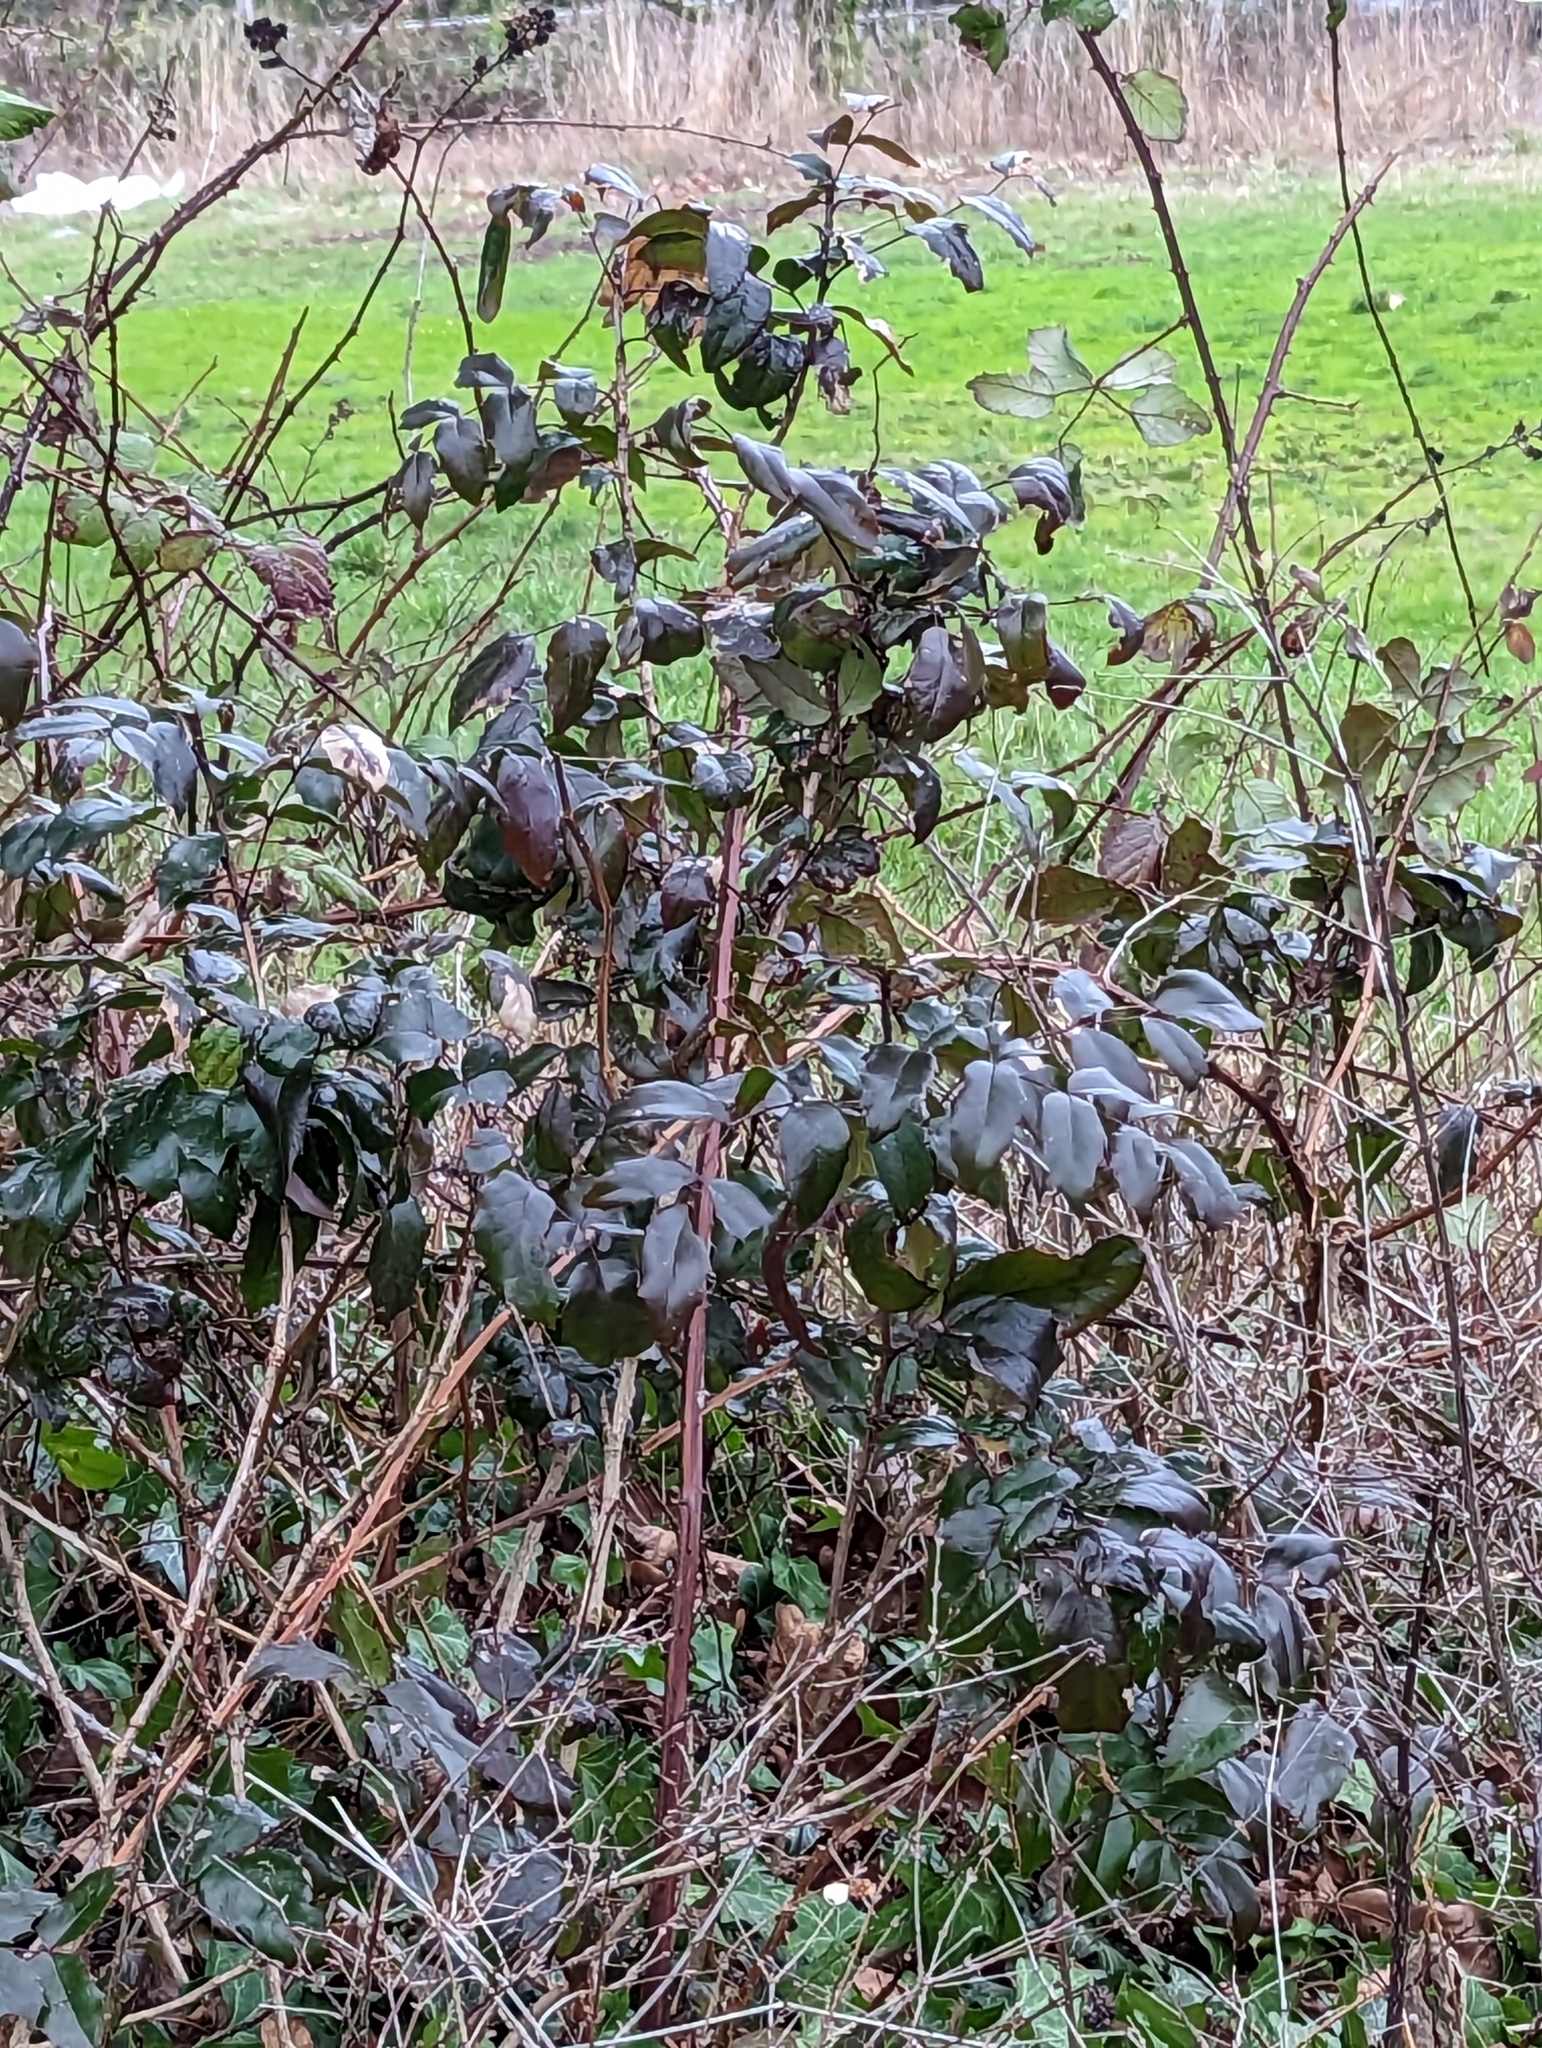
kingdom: Plantae
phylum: Tracheophyta
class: Magnoliopsida
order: Ranunculales
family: Berberidaceae
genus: Mahonia
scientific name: Mahonia aquifolium
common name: Oregon-grape
